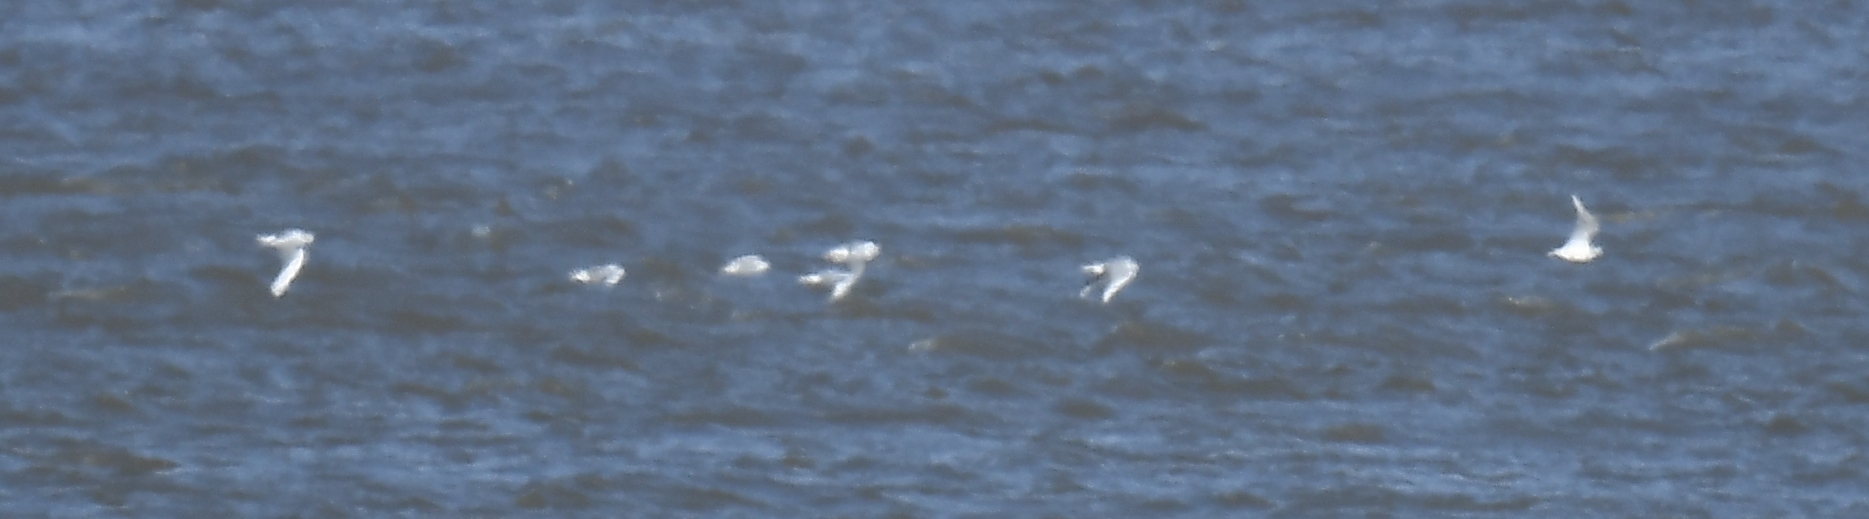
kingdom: Animalia
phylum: Chordata
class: Aves
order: Charadriiformes
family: Laridae
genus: Chroicocephalus
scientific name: Chroicocephalus philadelphia
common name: Bonaparte's gull
